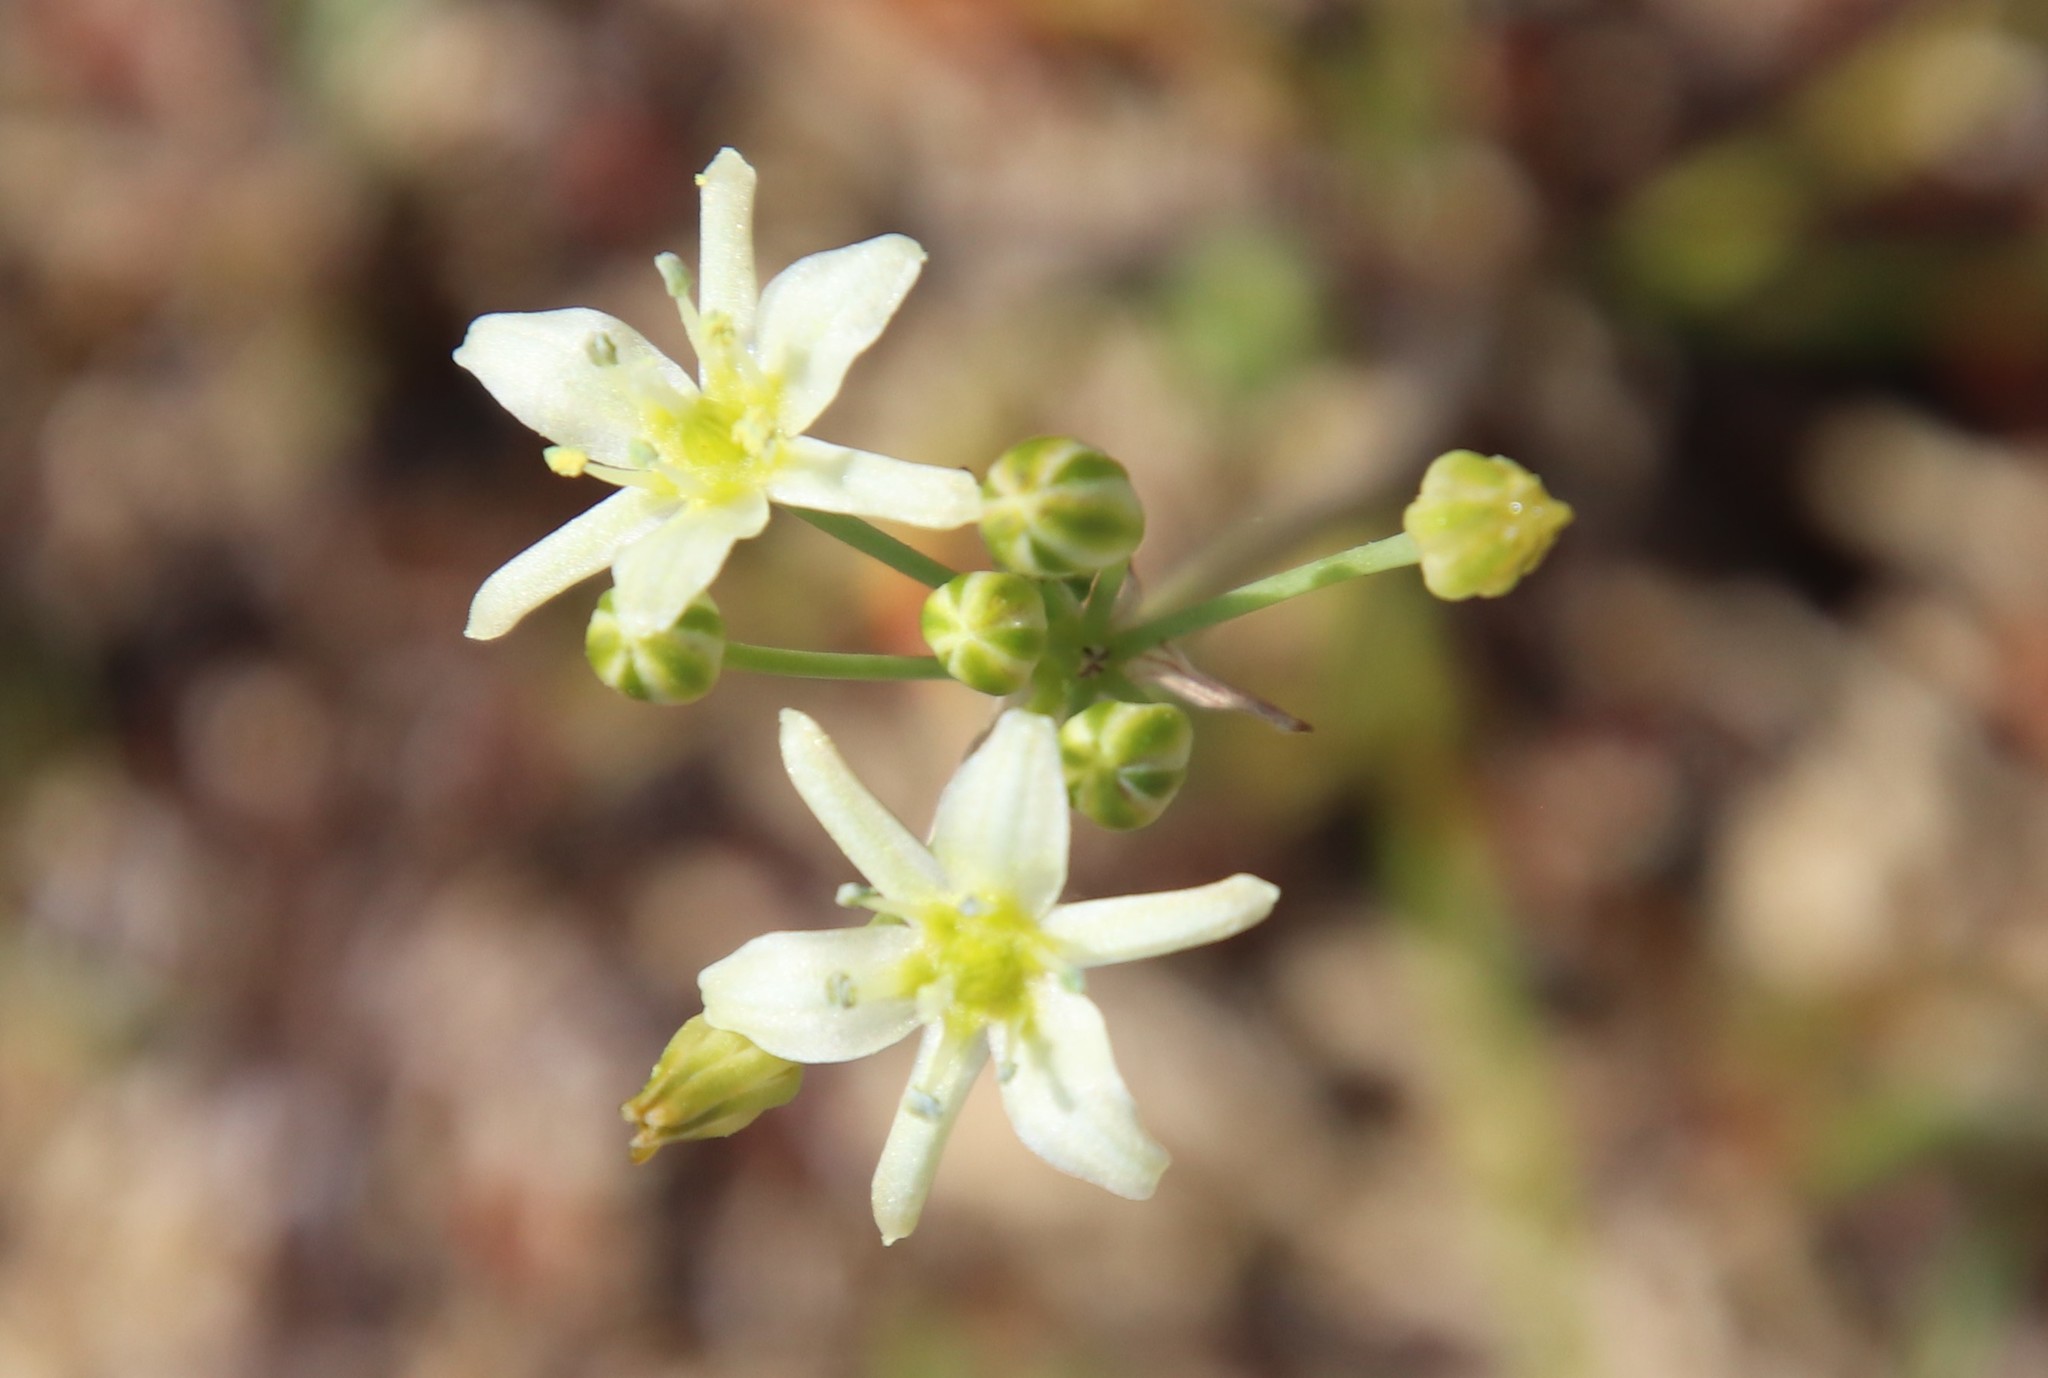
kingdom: Plantae
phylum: Tracheophyta
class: Liliopsida
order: Asparagales
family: Asparagaceae
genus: Muilla
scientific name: Muilla maritima
